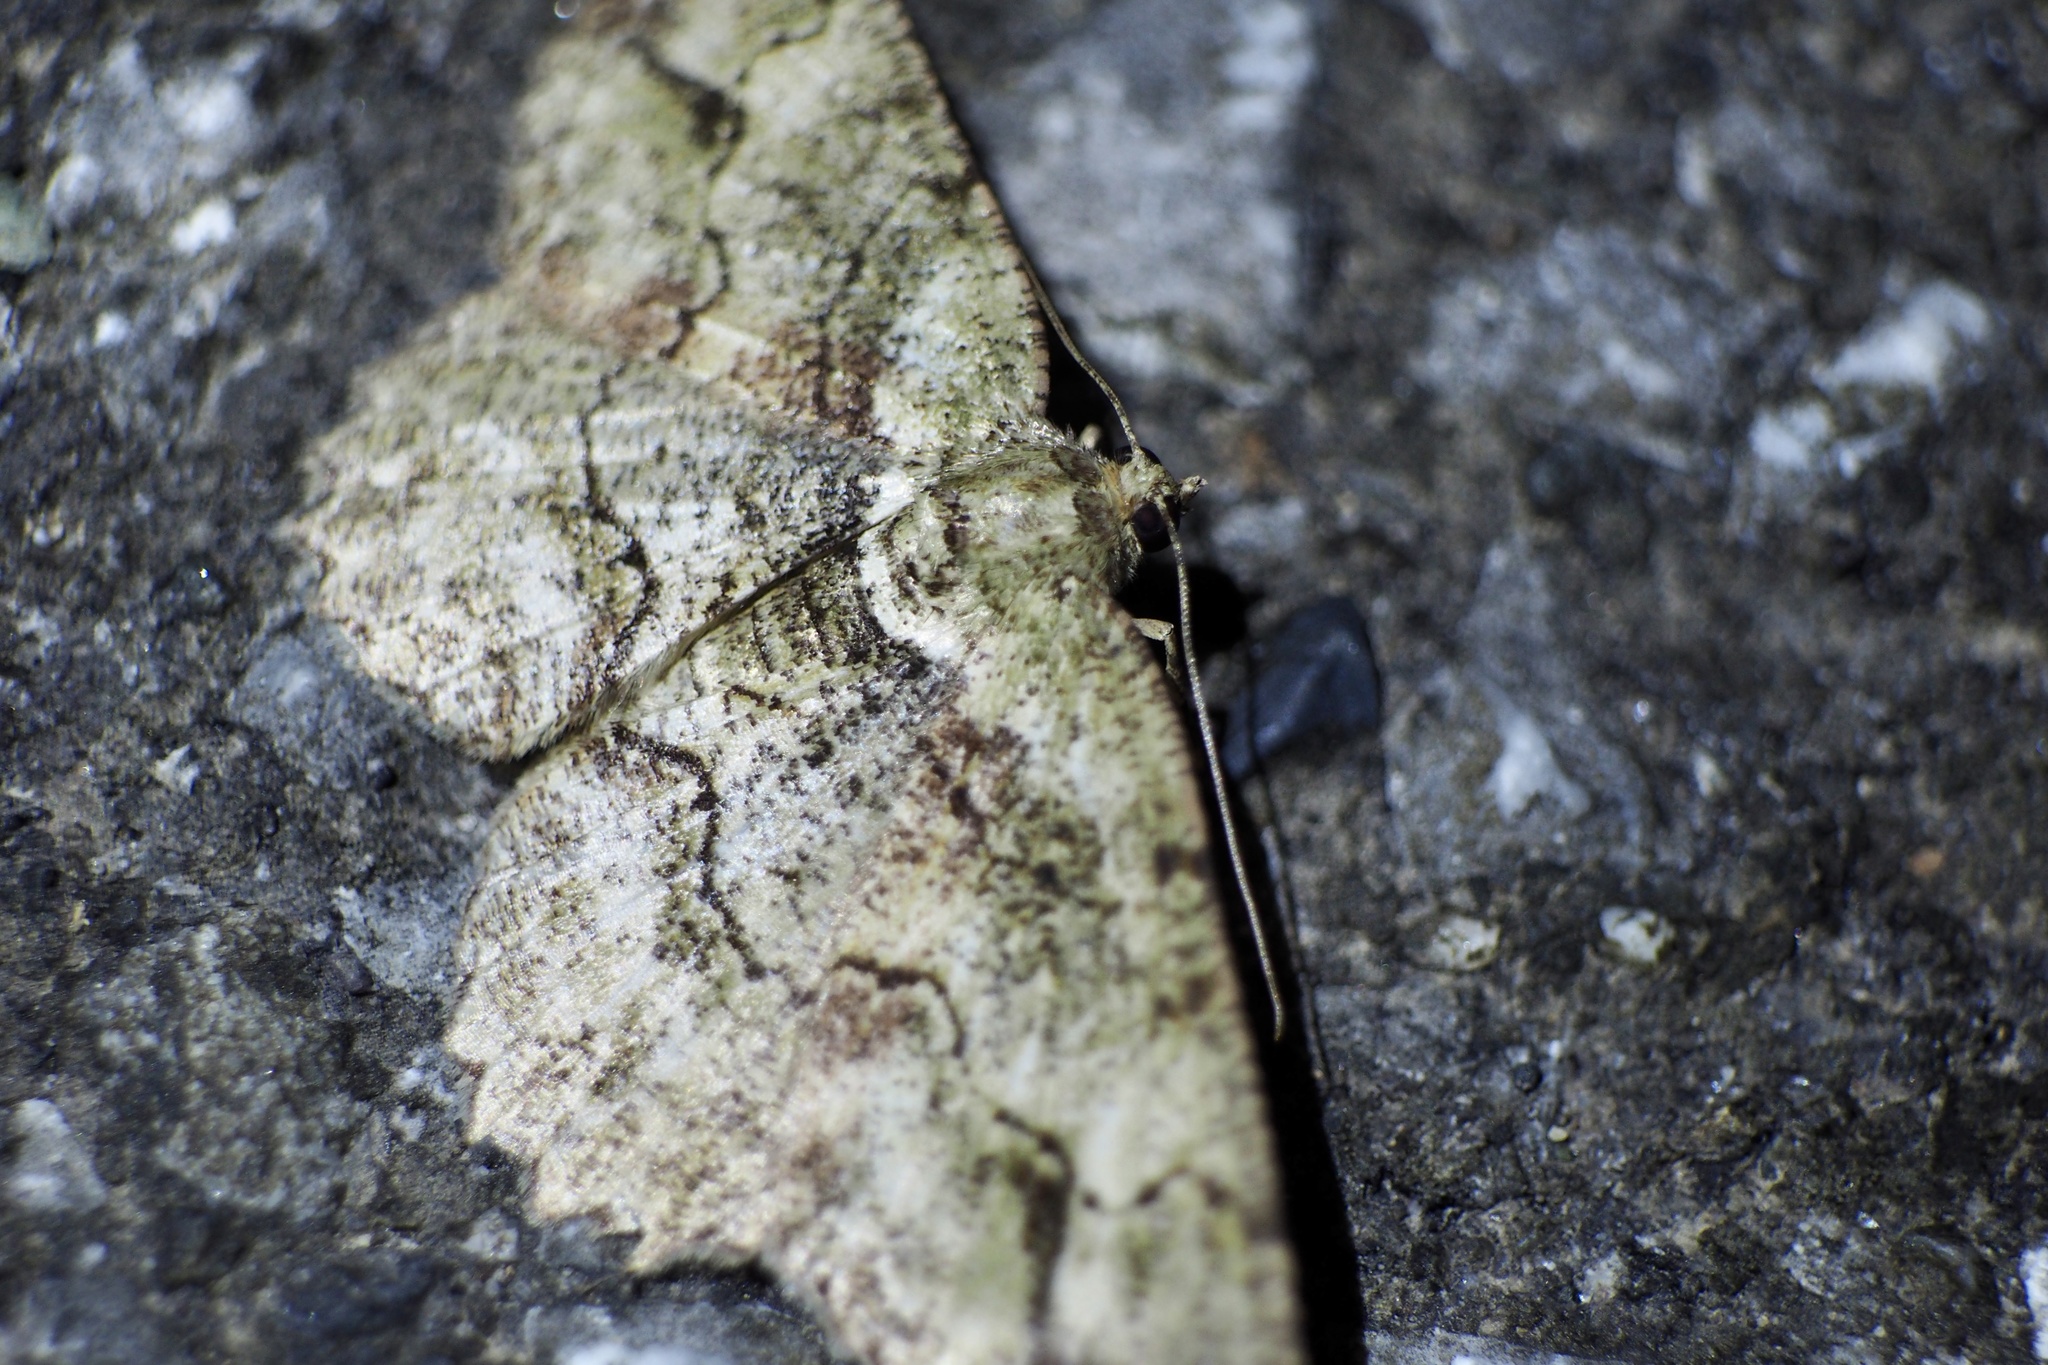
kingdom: Animalia
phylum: Arthropoda
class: Insecta
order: Lepidoptera
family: Geometridae
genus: Paradarisa
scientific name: Paradarisa chloauges
